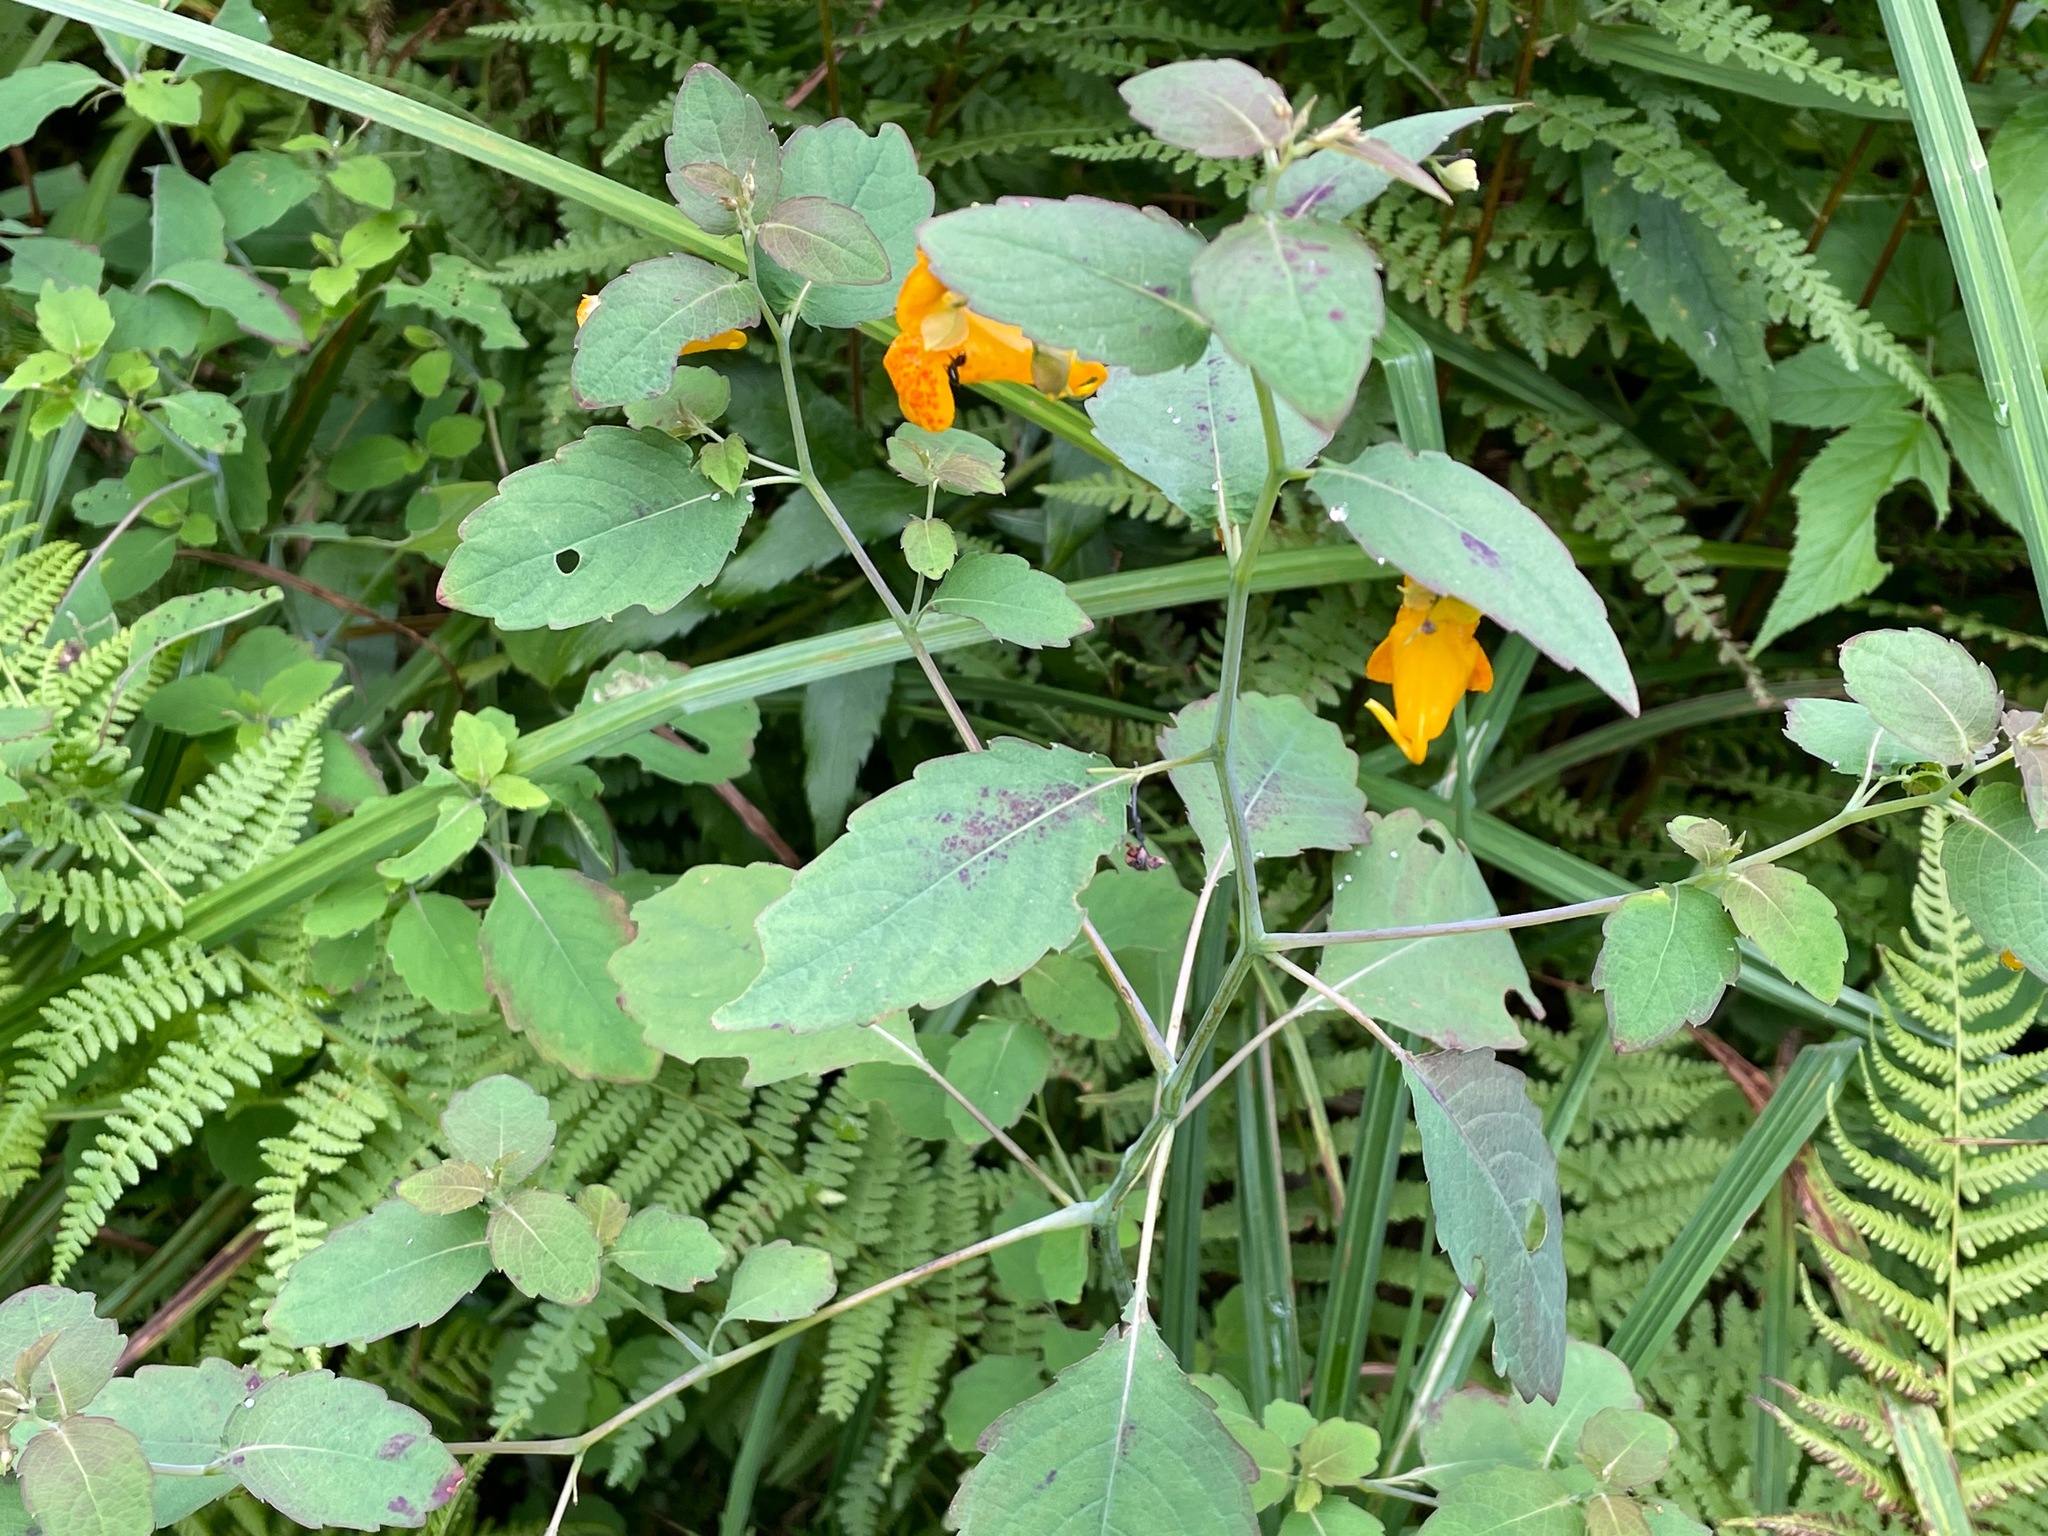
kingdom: Plantae
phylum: Tracheophyta
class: Magnoliopsida
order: Ericales
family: Balsaminaceae
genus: Impatiens
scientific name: Impatiens capensis
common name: Orange balsam
